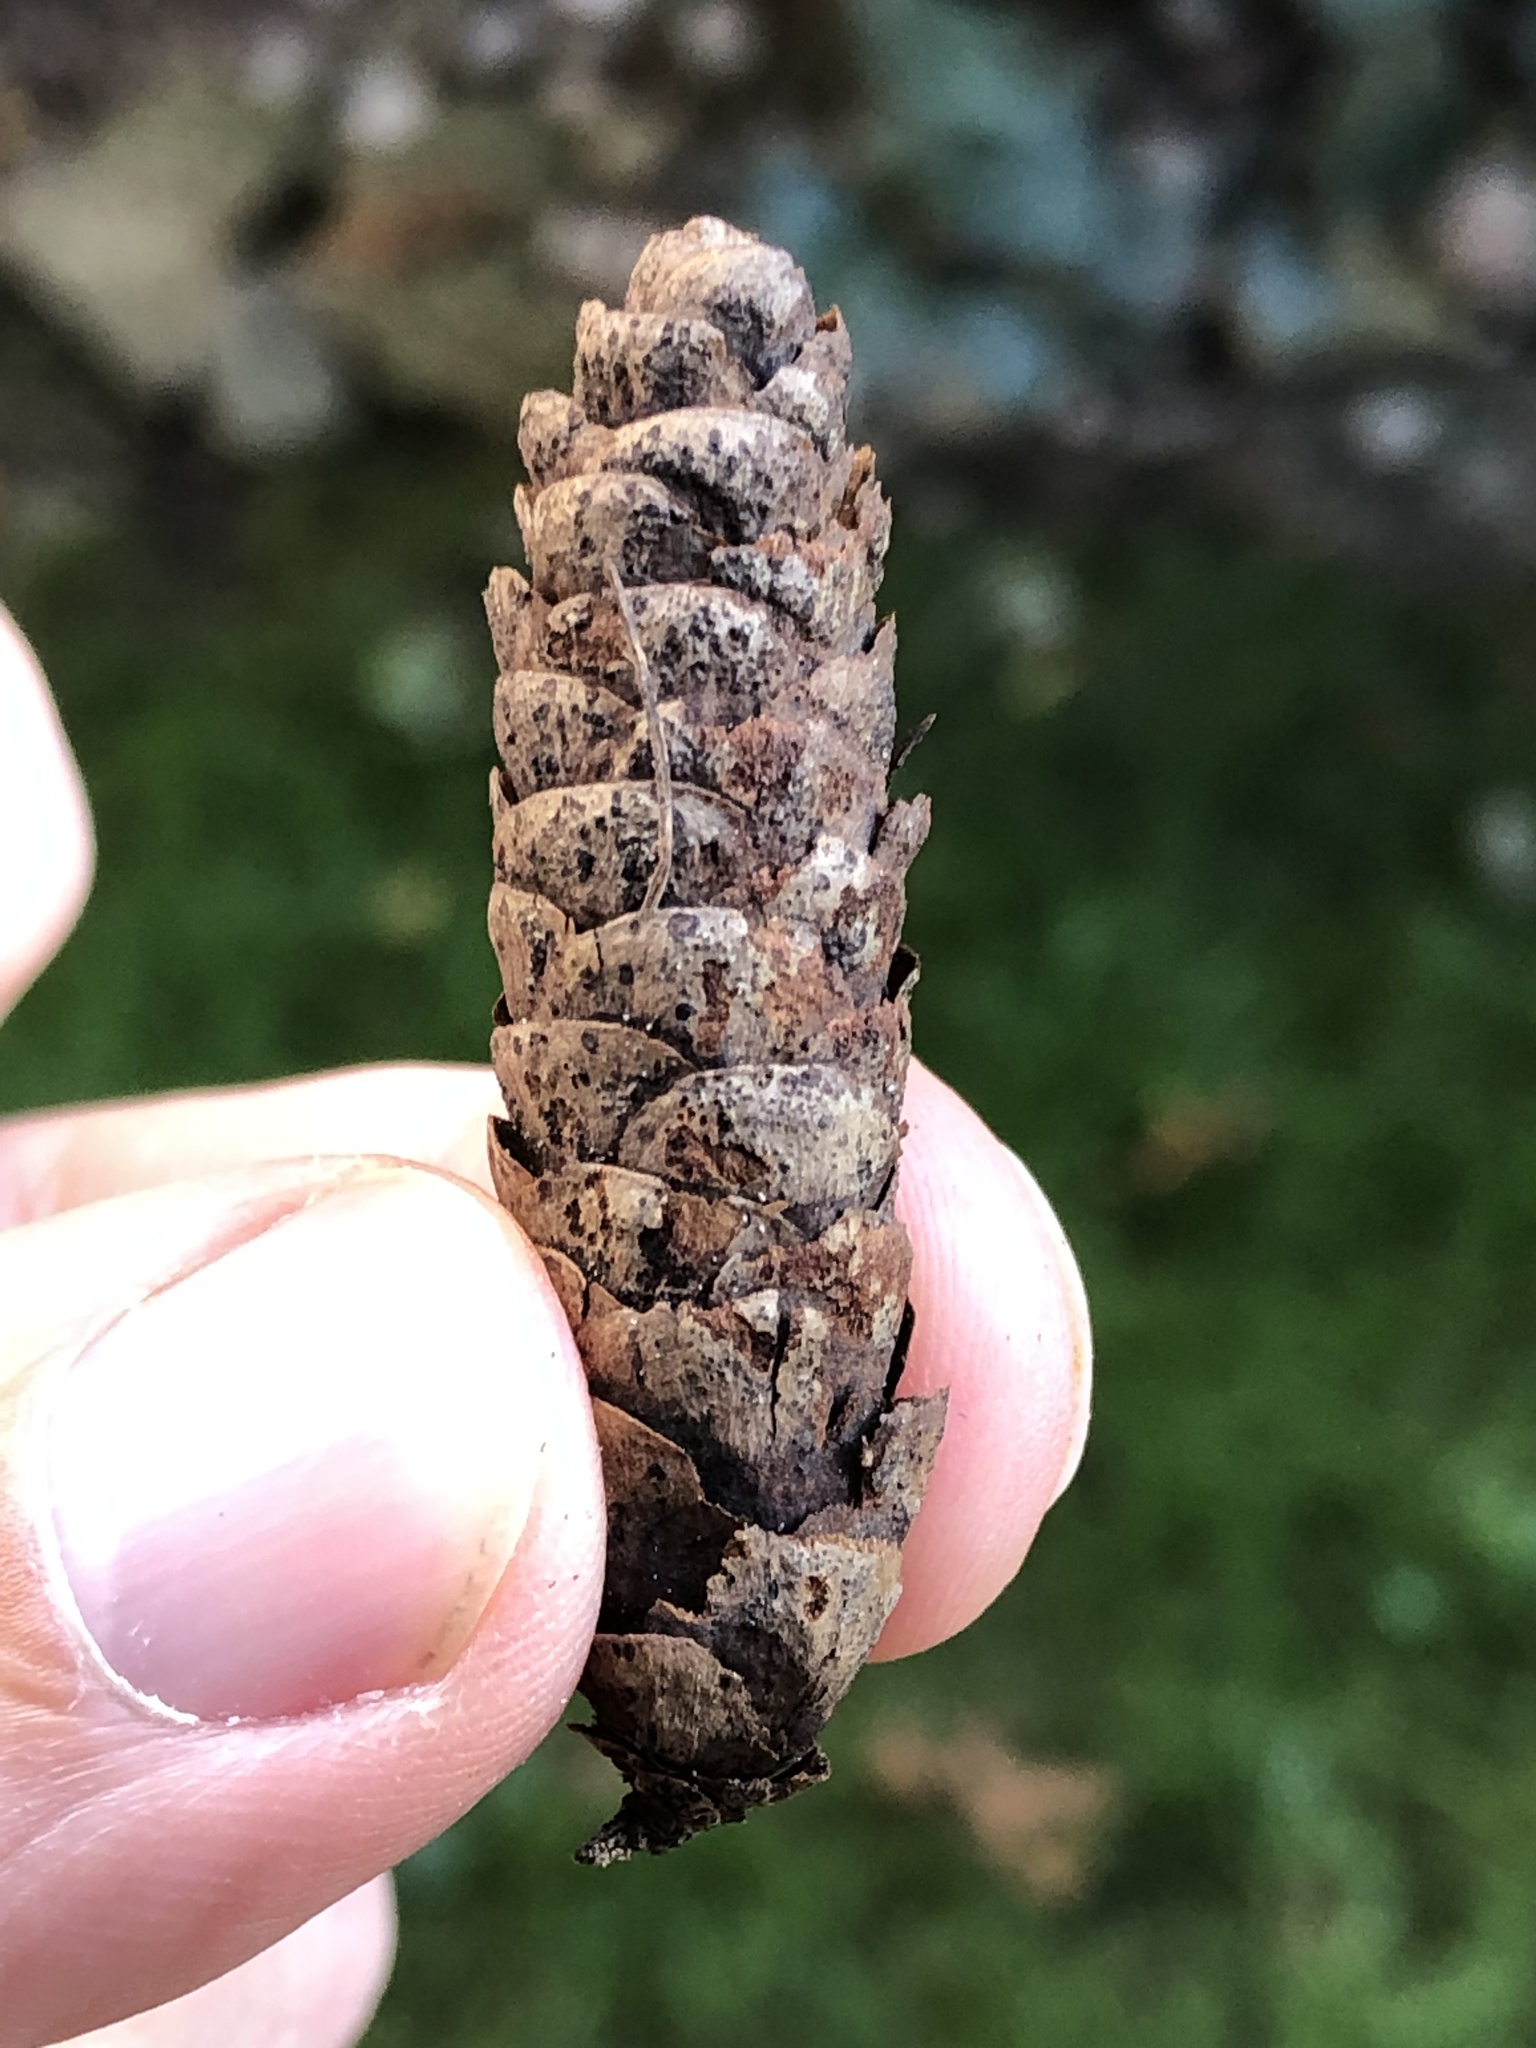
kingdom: Plantae
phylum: Tracheophyta
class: Pinopsida
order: Pinales
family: Pinaceae
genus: Picea
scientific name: Picea glauca
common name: White spruce
